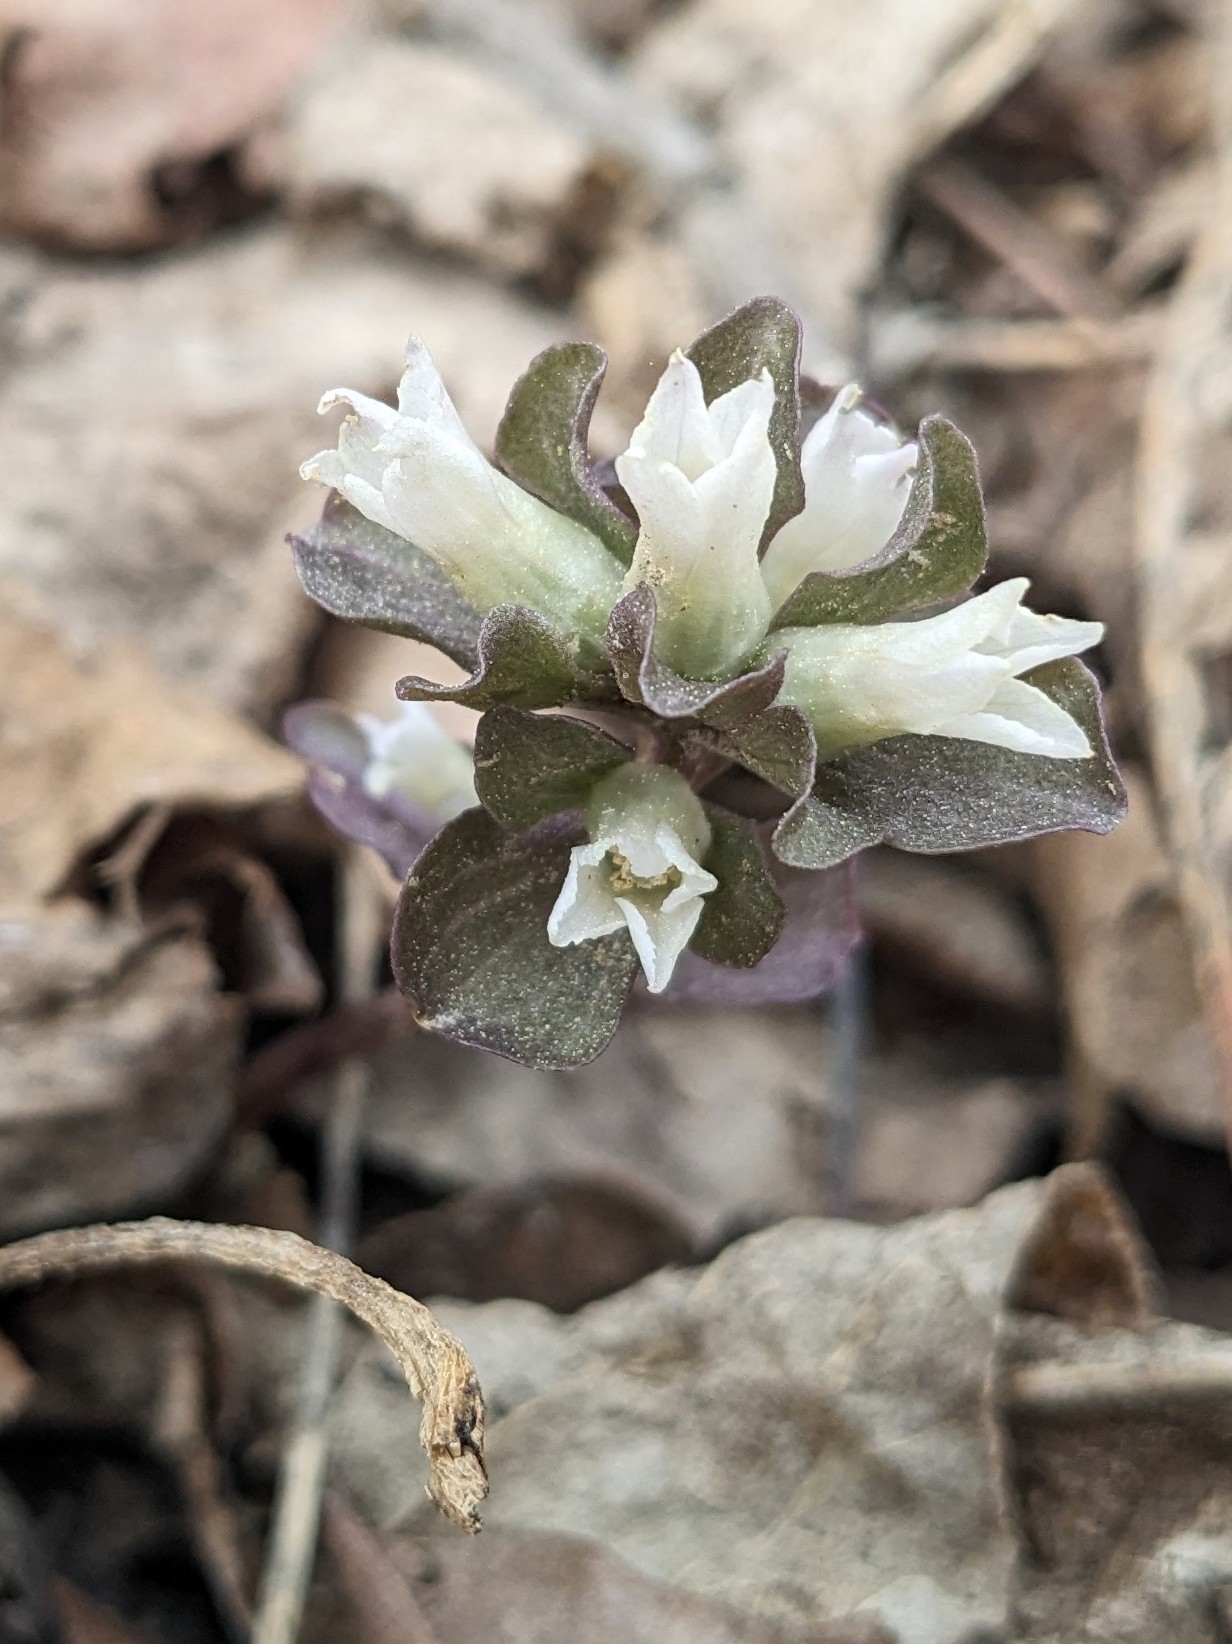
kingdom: Plantae
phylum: Tracheophyta
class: Magnoliopsida
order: Gentianales
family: Gentianaceae
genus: Obolaria
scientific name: Obolaria virginica
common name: Pennywort
